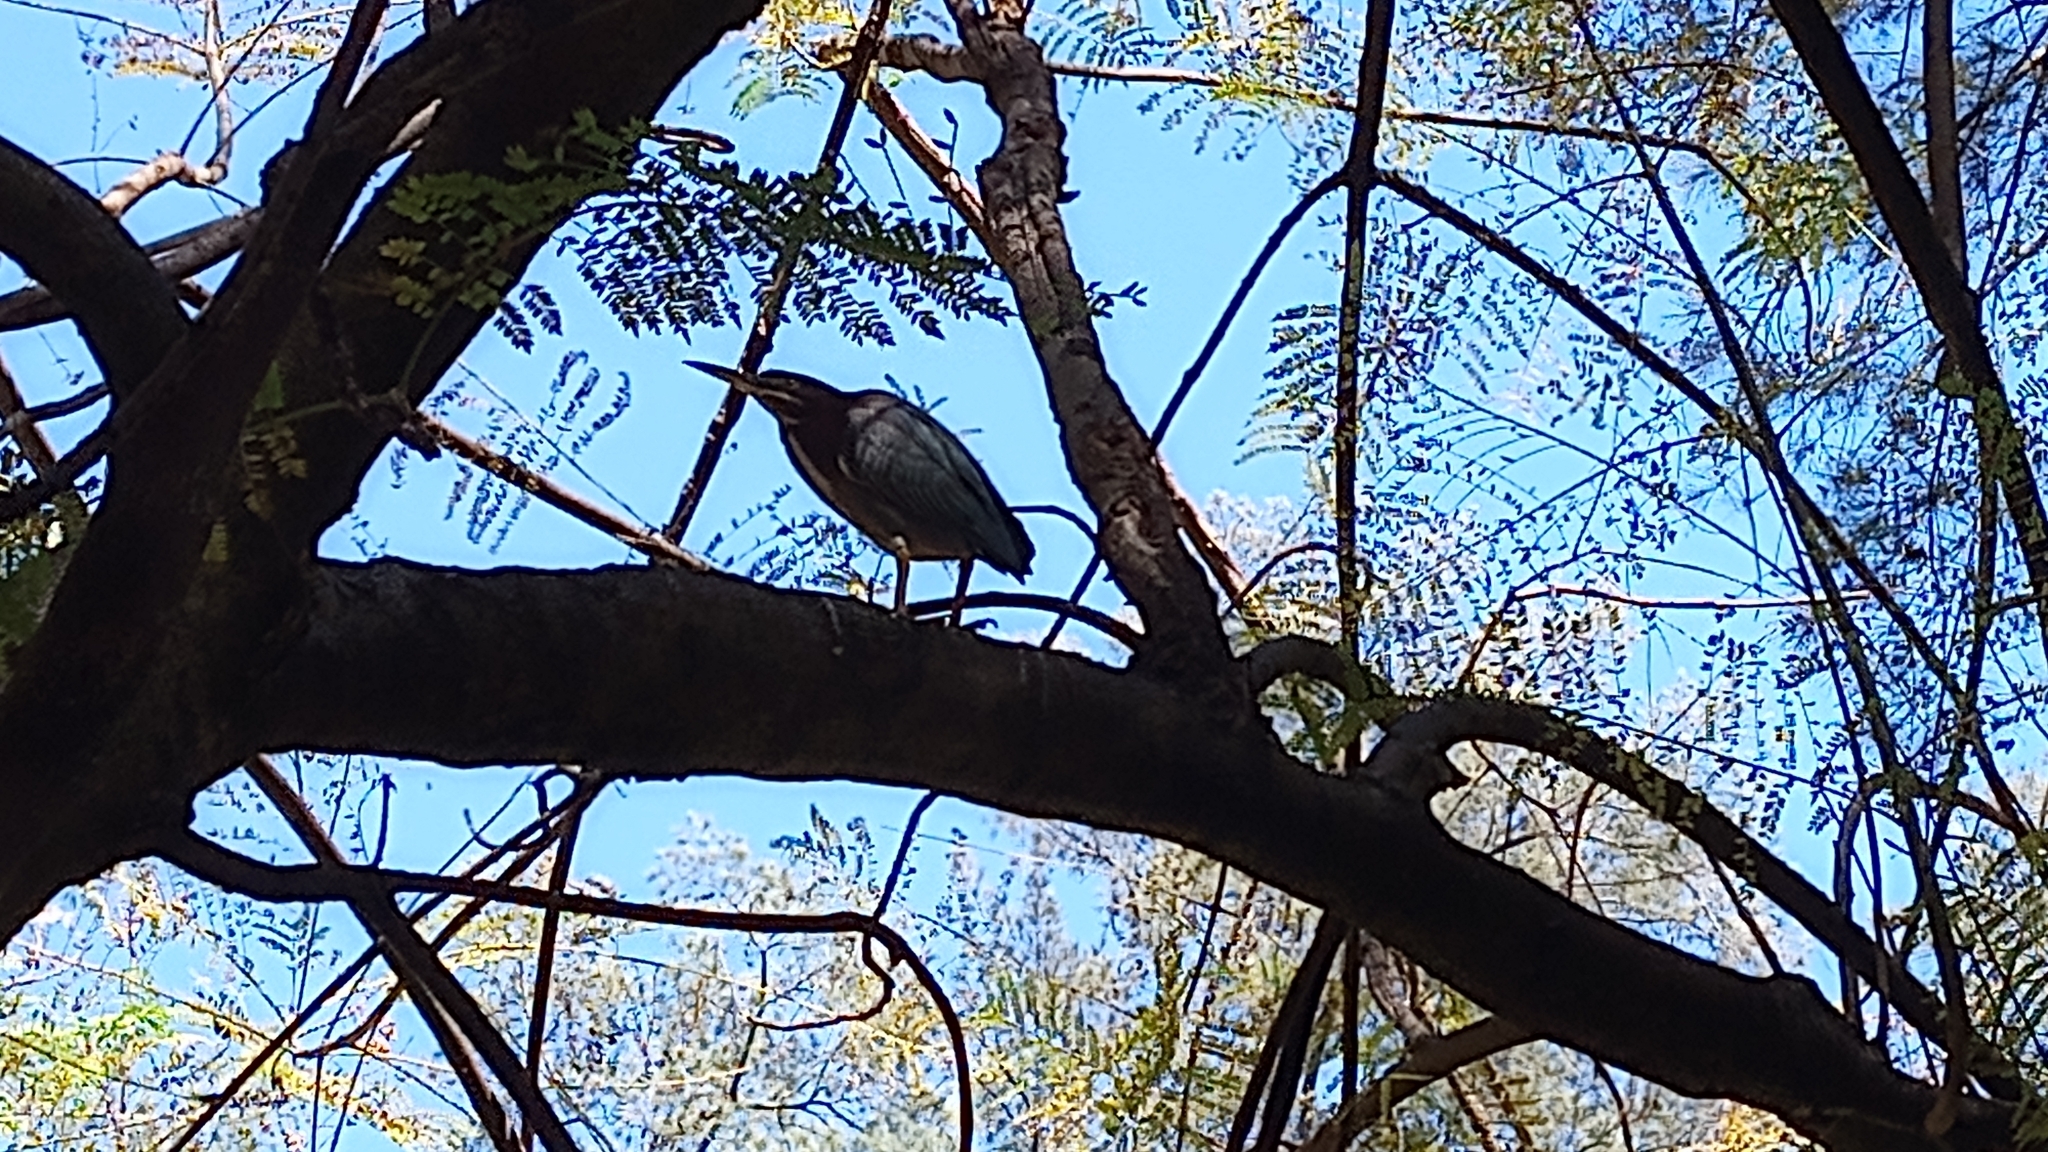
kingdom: Animalia
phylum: Chordata
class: Aves
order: Pelecaniformes
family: Ardeidae
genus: Butorides
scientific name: Butorides virescens
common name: Green heron
